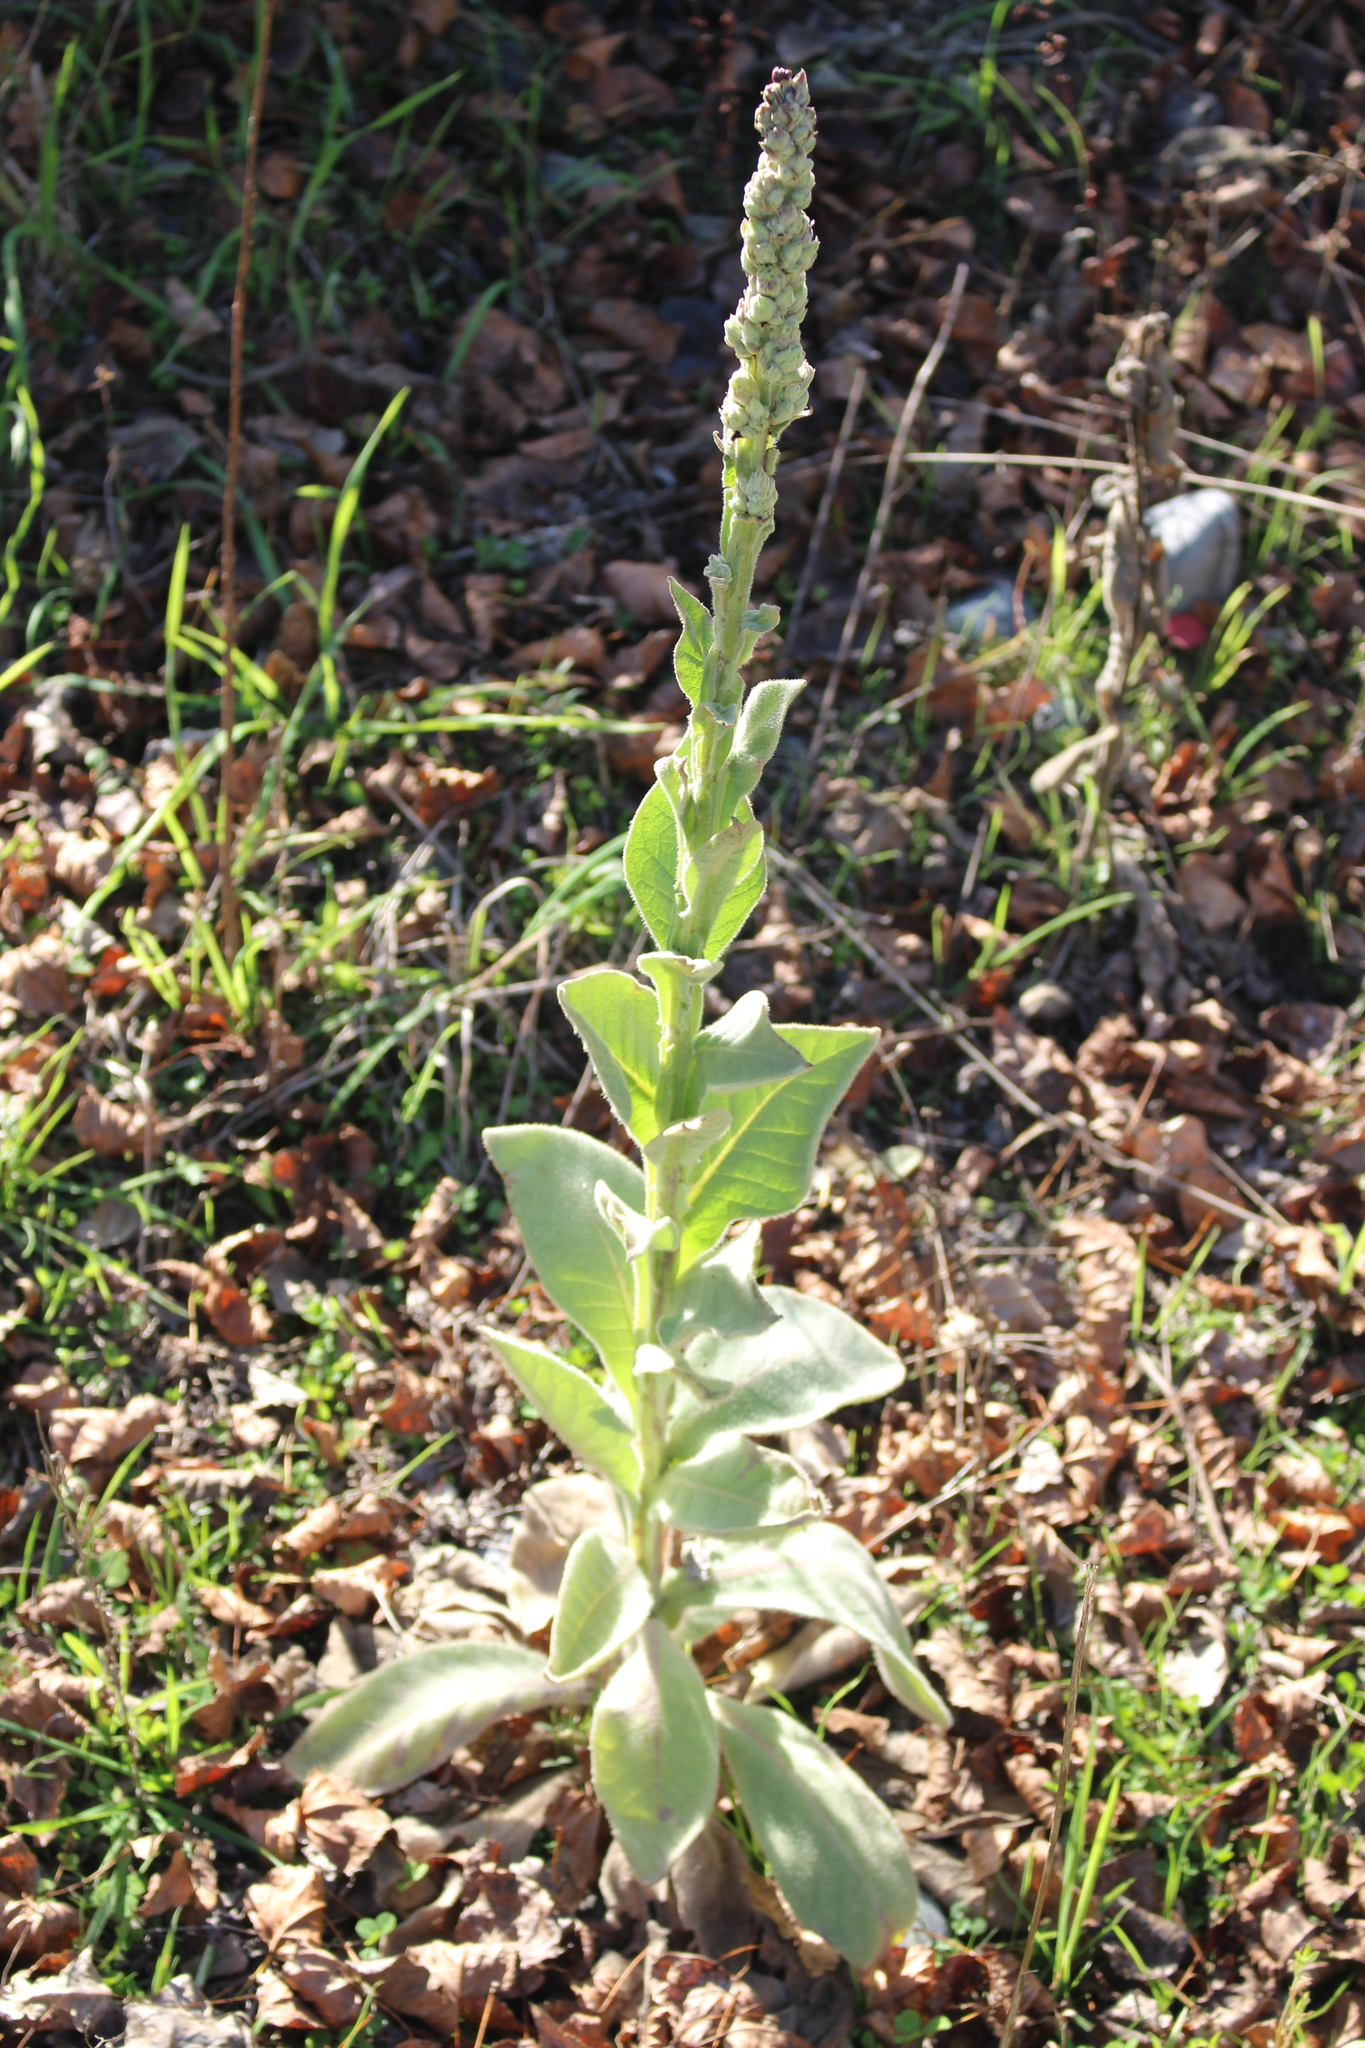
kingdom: Plantae
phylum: Tracheophyta
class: Magnoliopsida
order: Lamiales
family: Scrophulariaceae
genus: Verbascum
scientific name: Verbascum thapsus
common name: Common mullein
